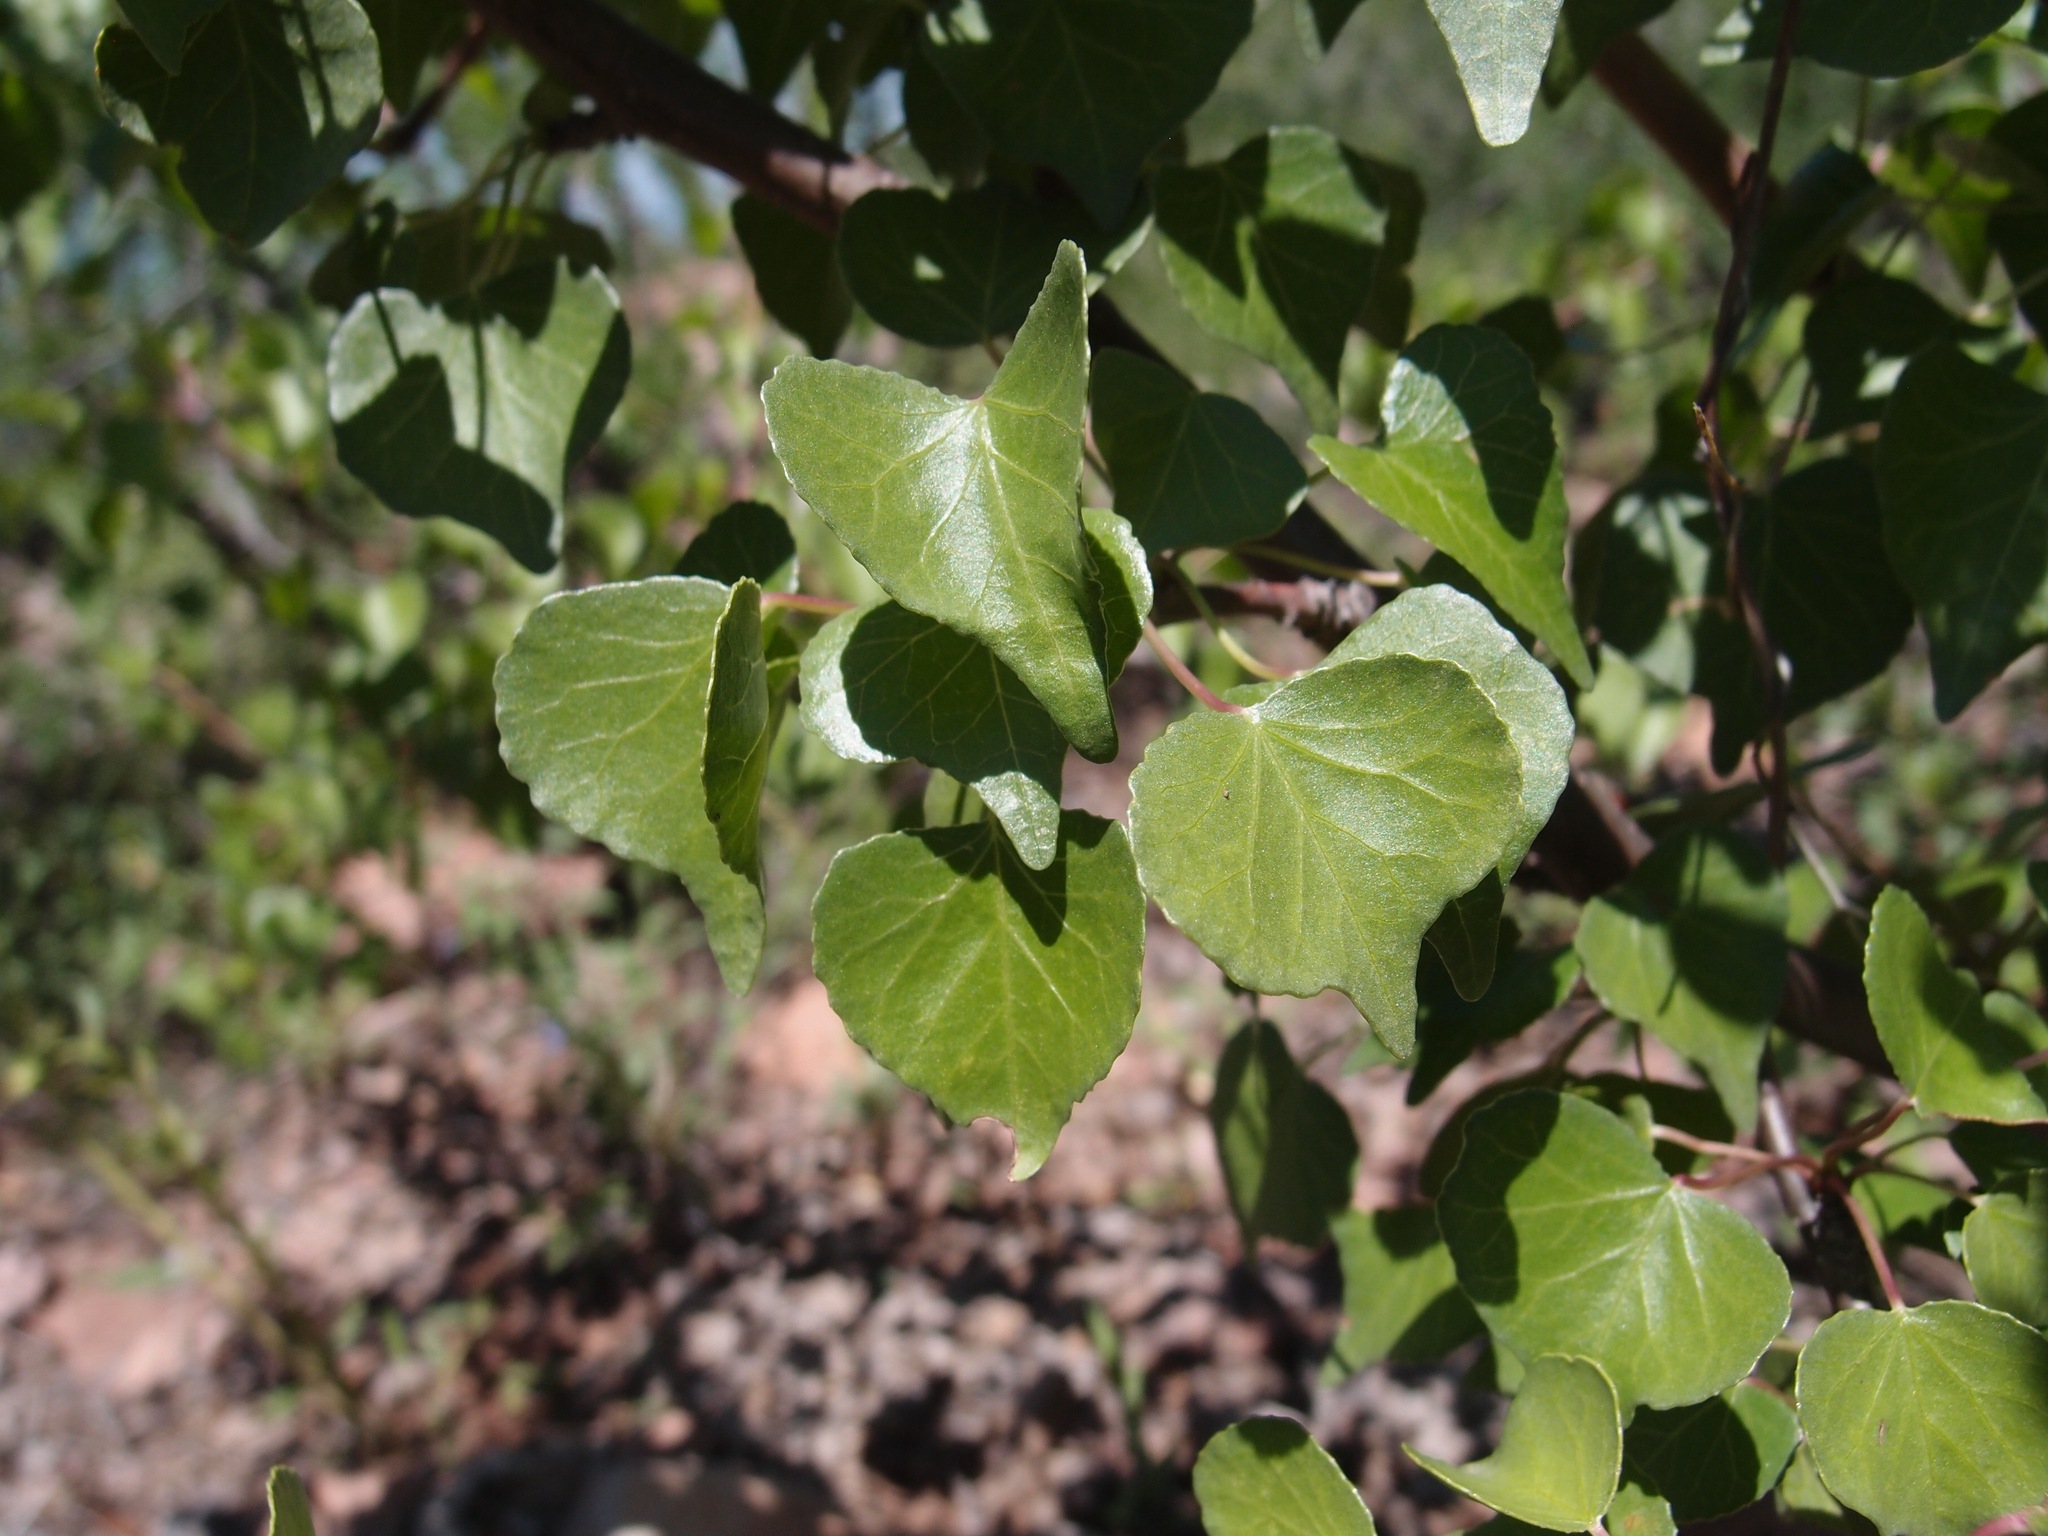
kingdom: Plantae
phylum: Tracheophyta
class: Magnoliopsida
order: Malpighiales
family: Euphorbiaceae
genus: Jatropha
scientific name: Jatropha cardiophylla
